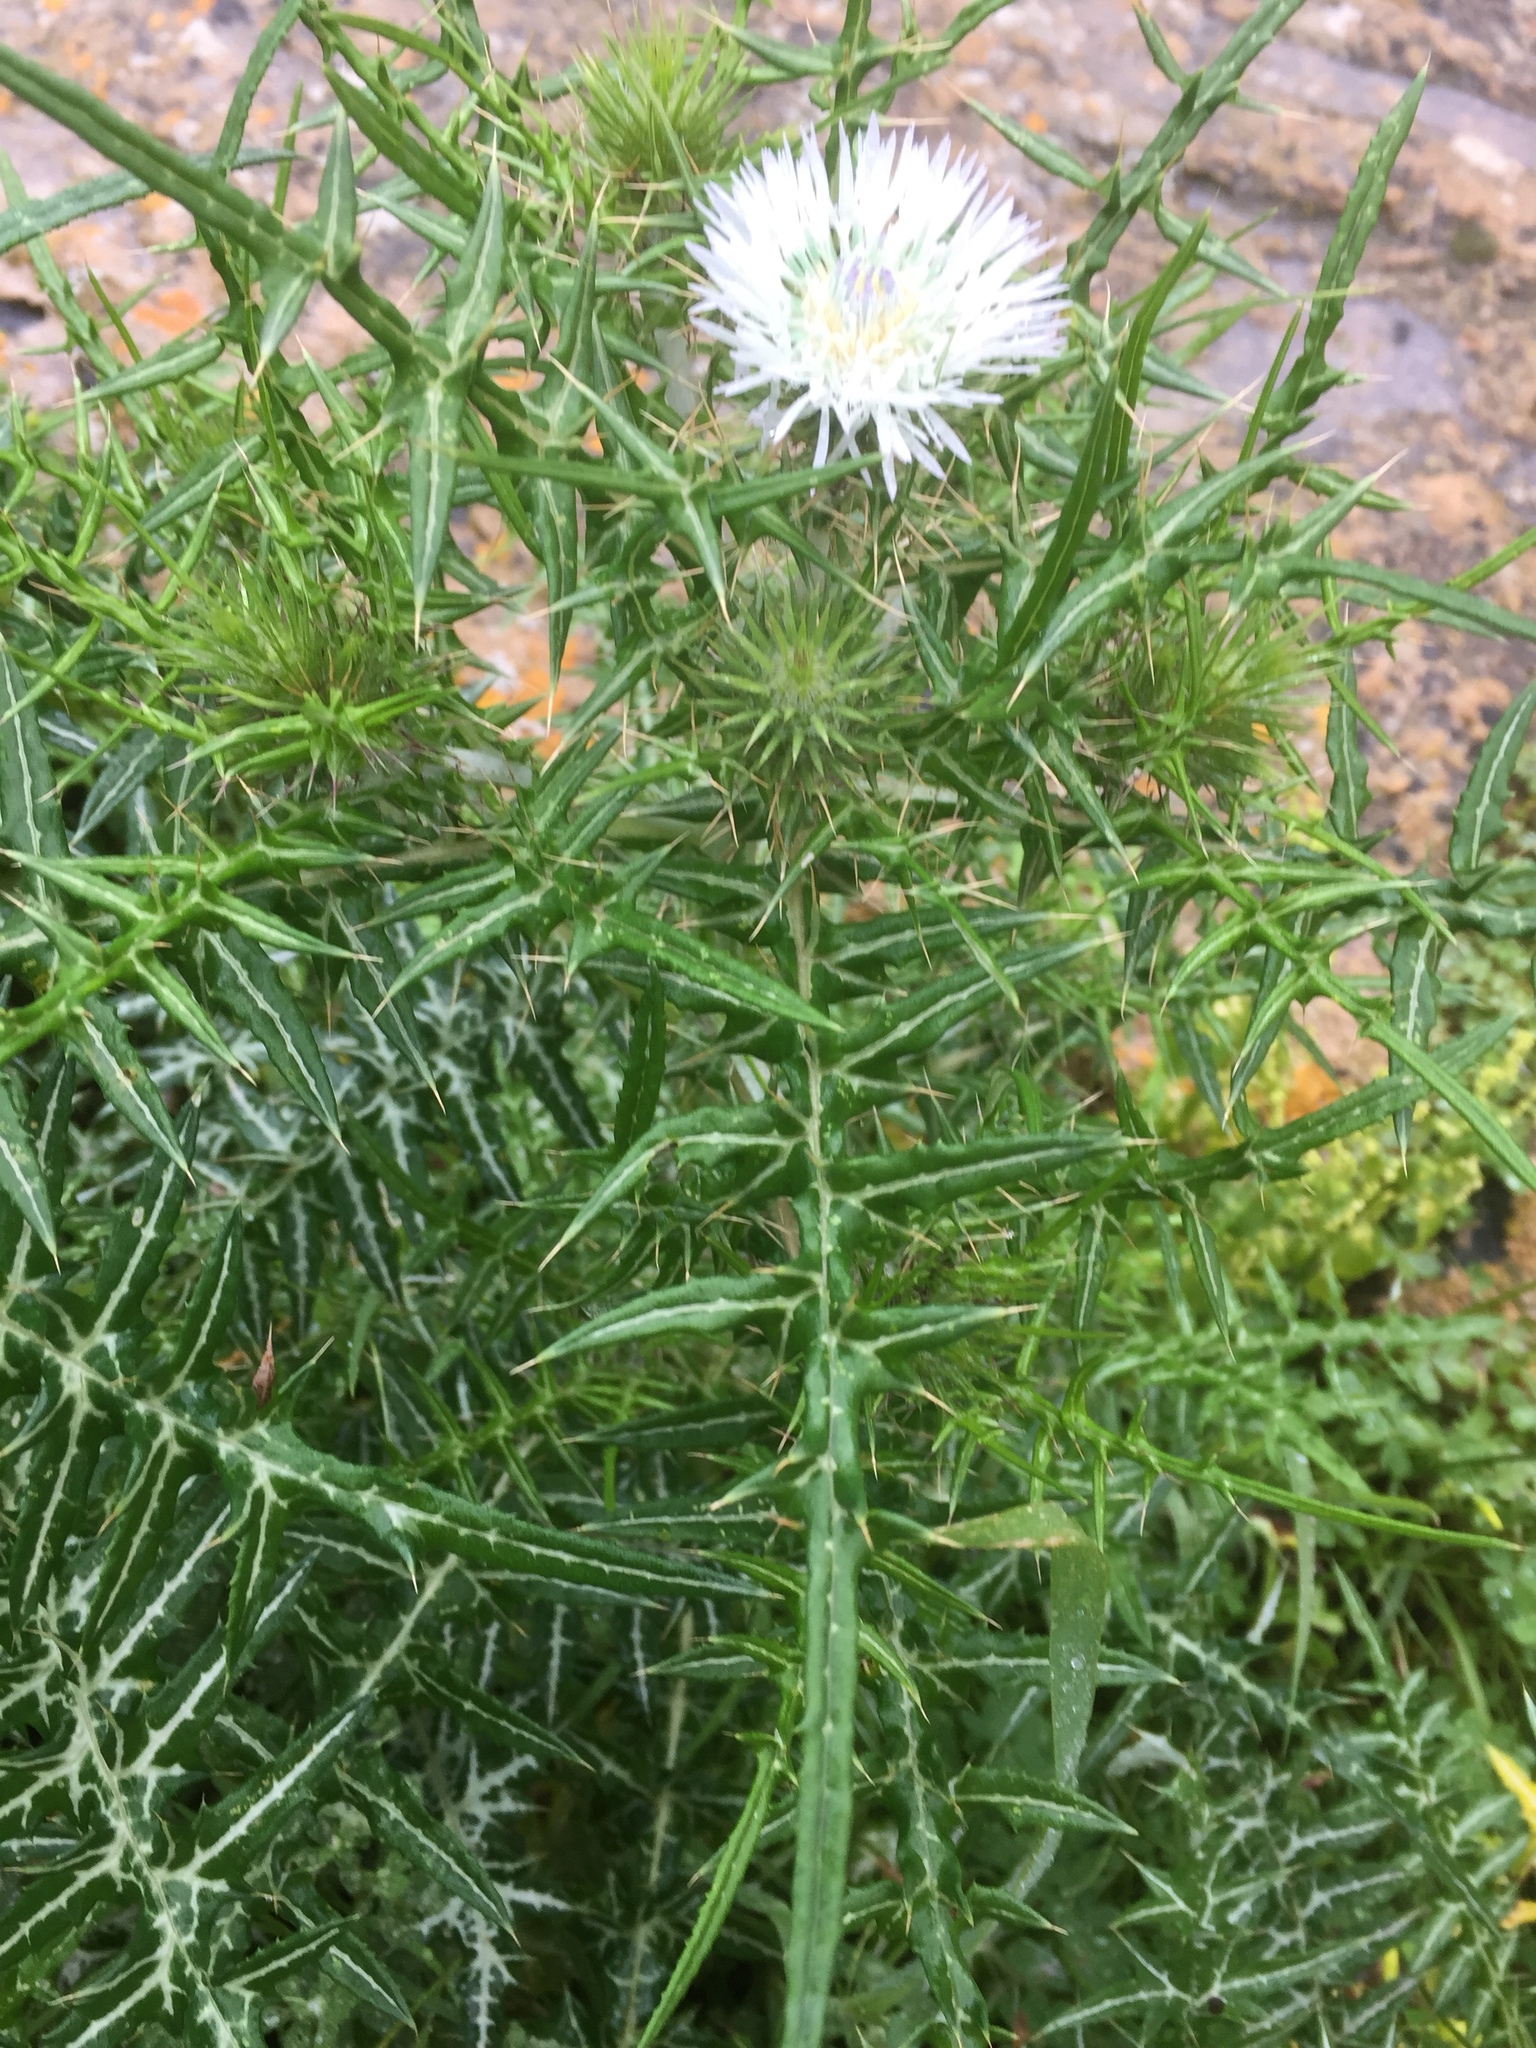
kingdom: Plantae
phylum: Tracheophyta
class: Magnoliopsida
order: Asterales
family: Asteraceae
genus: Galactites
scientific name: Galactites tomentosa
